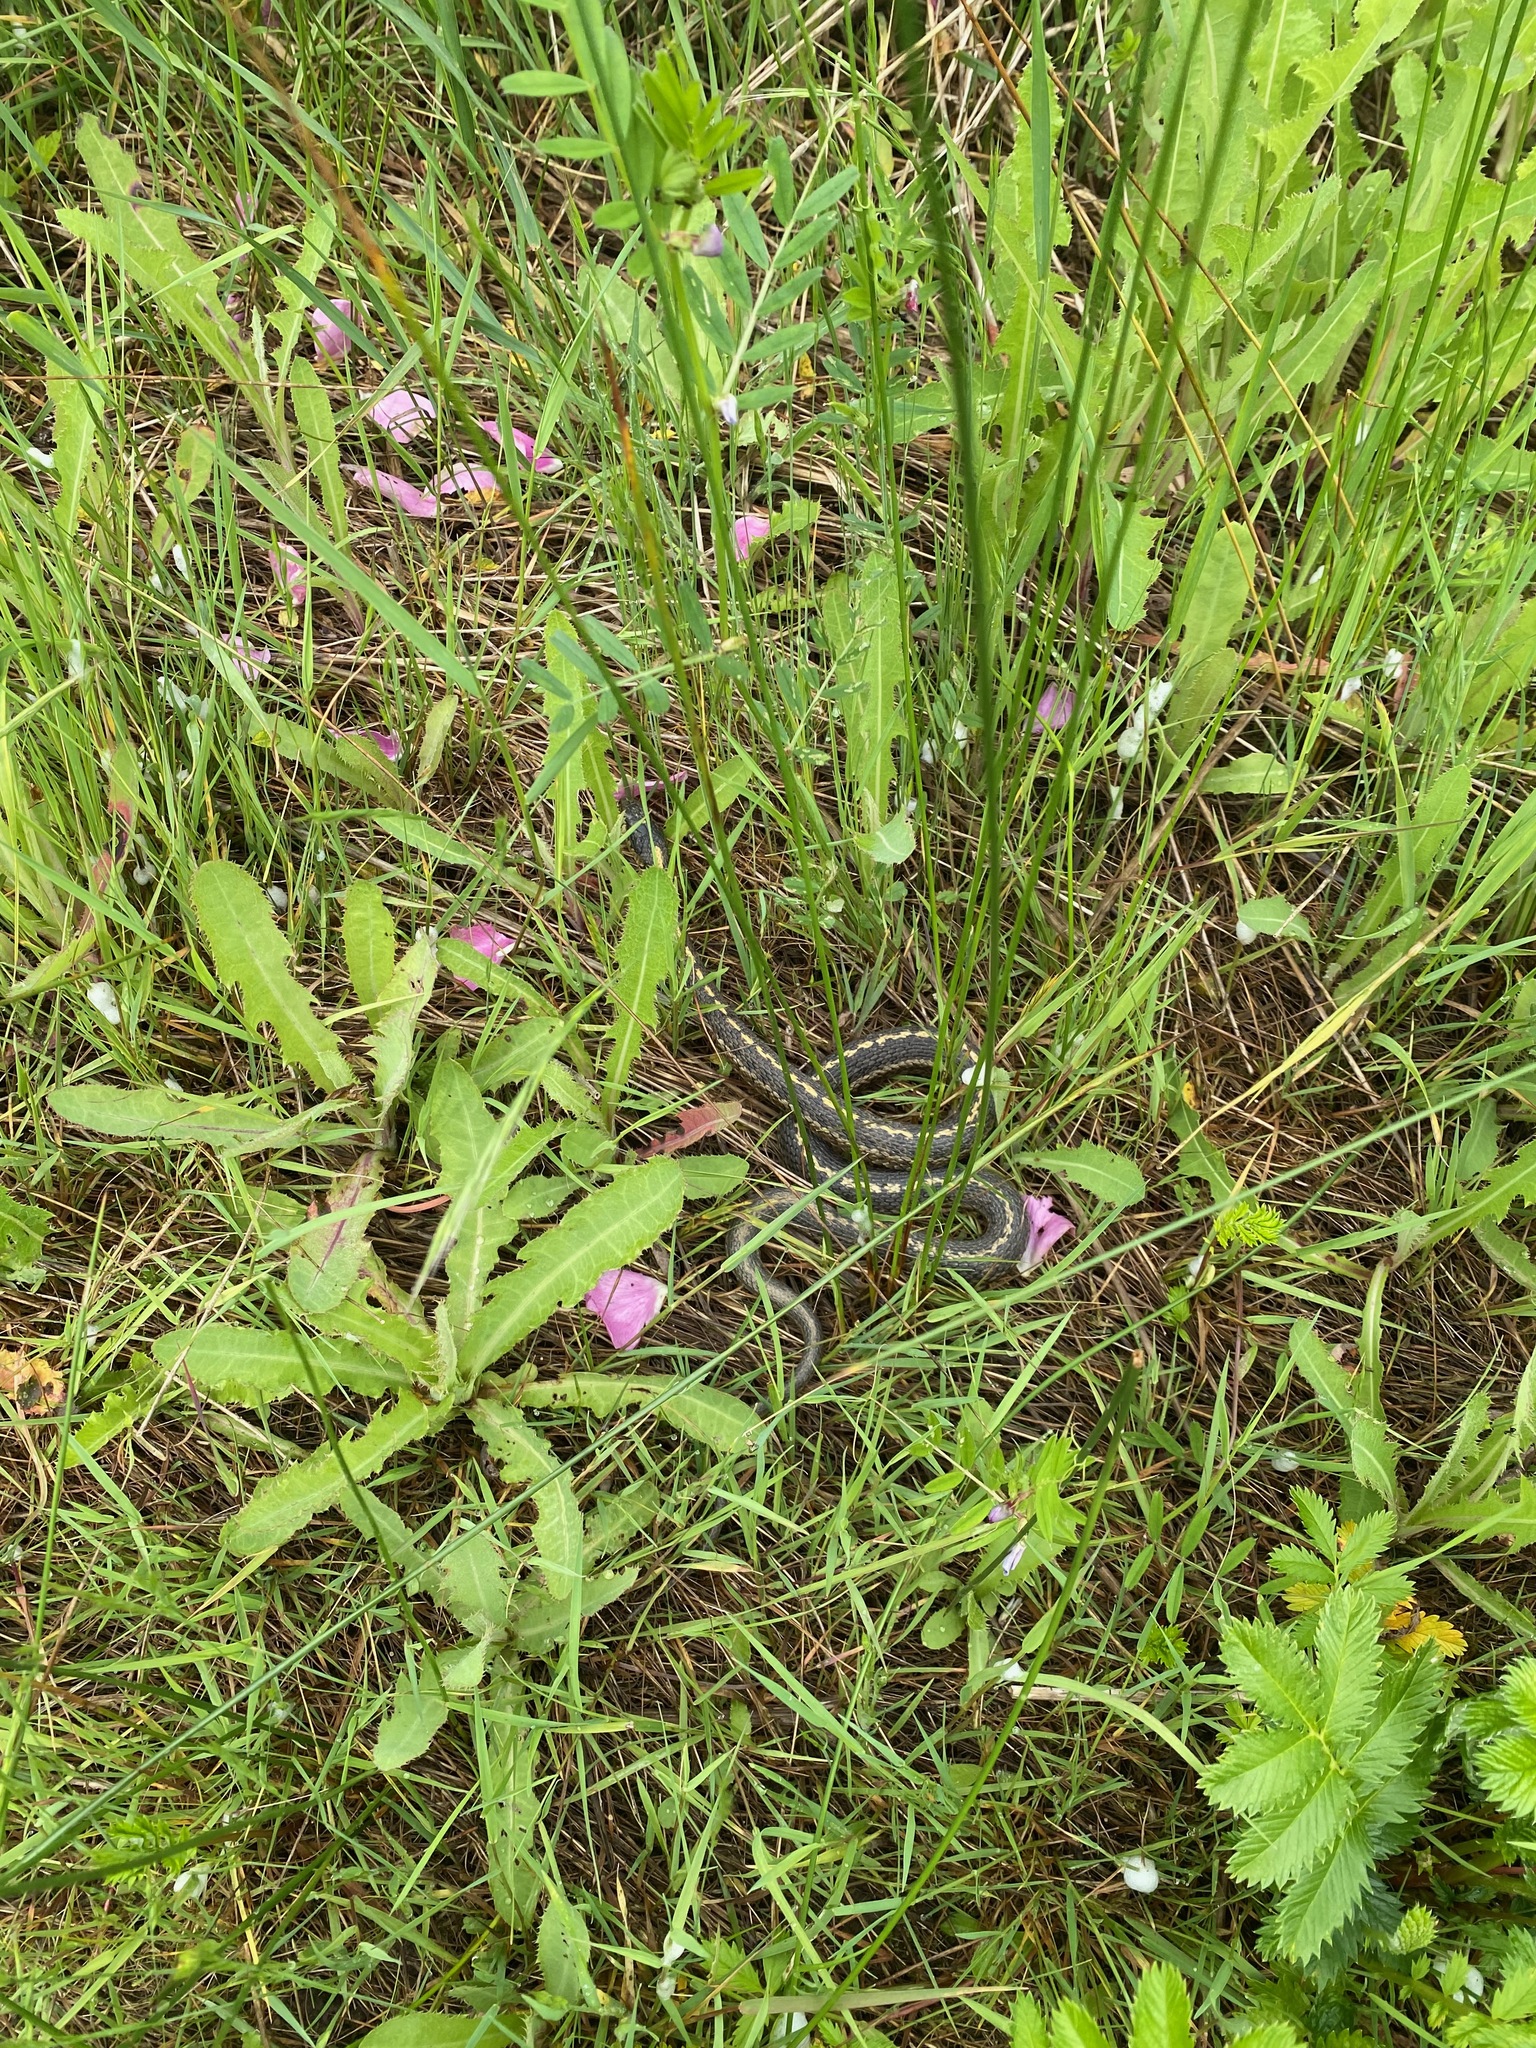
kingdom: Animalia
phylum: Chordata
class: Squamata
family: Colubridae
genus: Thamnophis
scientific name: Thamnophis elegans
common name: Western terrestrial garter snake
